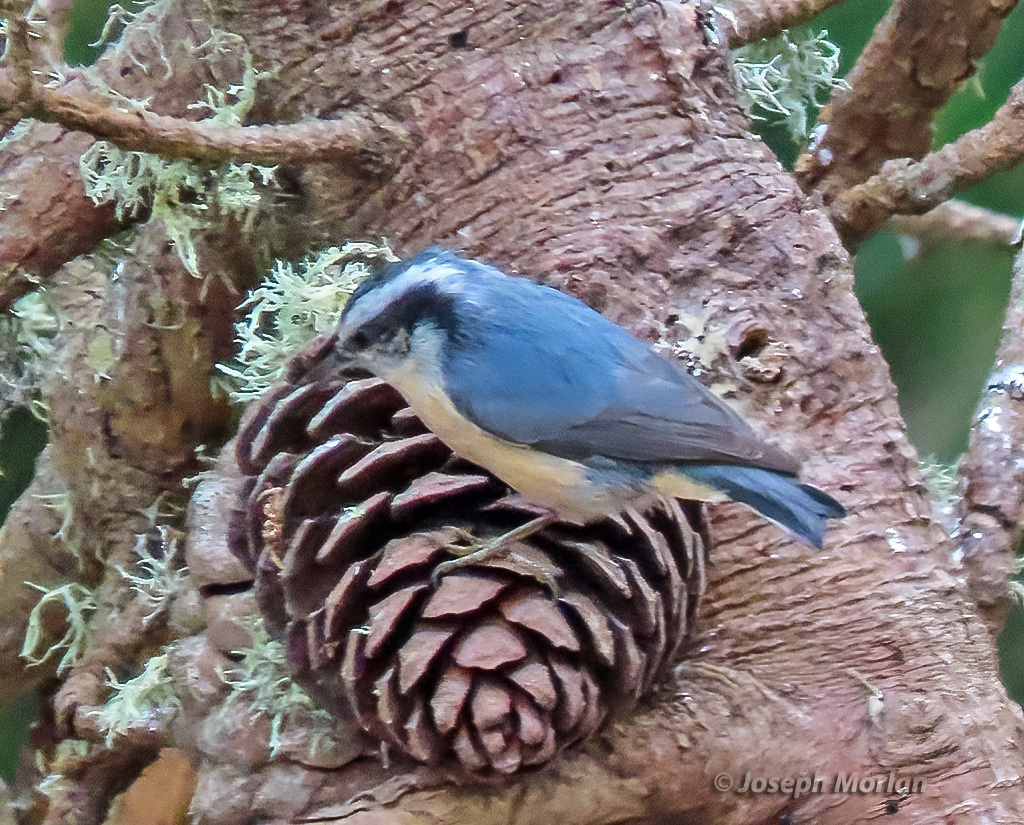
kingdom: Animalia
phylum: Chordata
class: Aves
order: Passeriformes
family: Sittidae
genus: Sitta
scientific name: Sitta canadensis
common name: Red-breasted nuthatch
